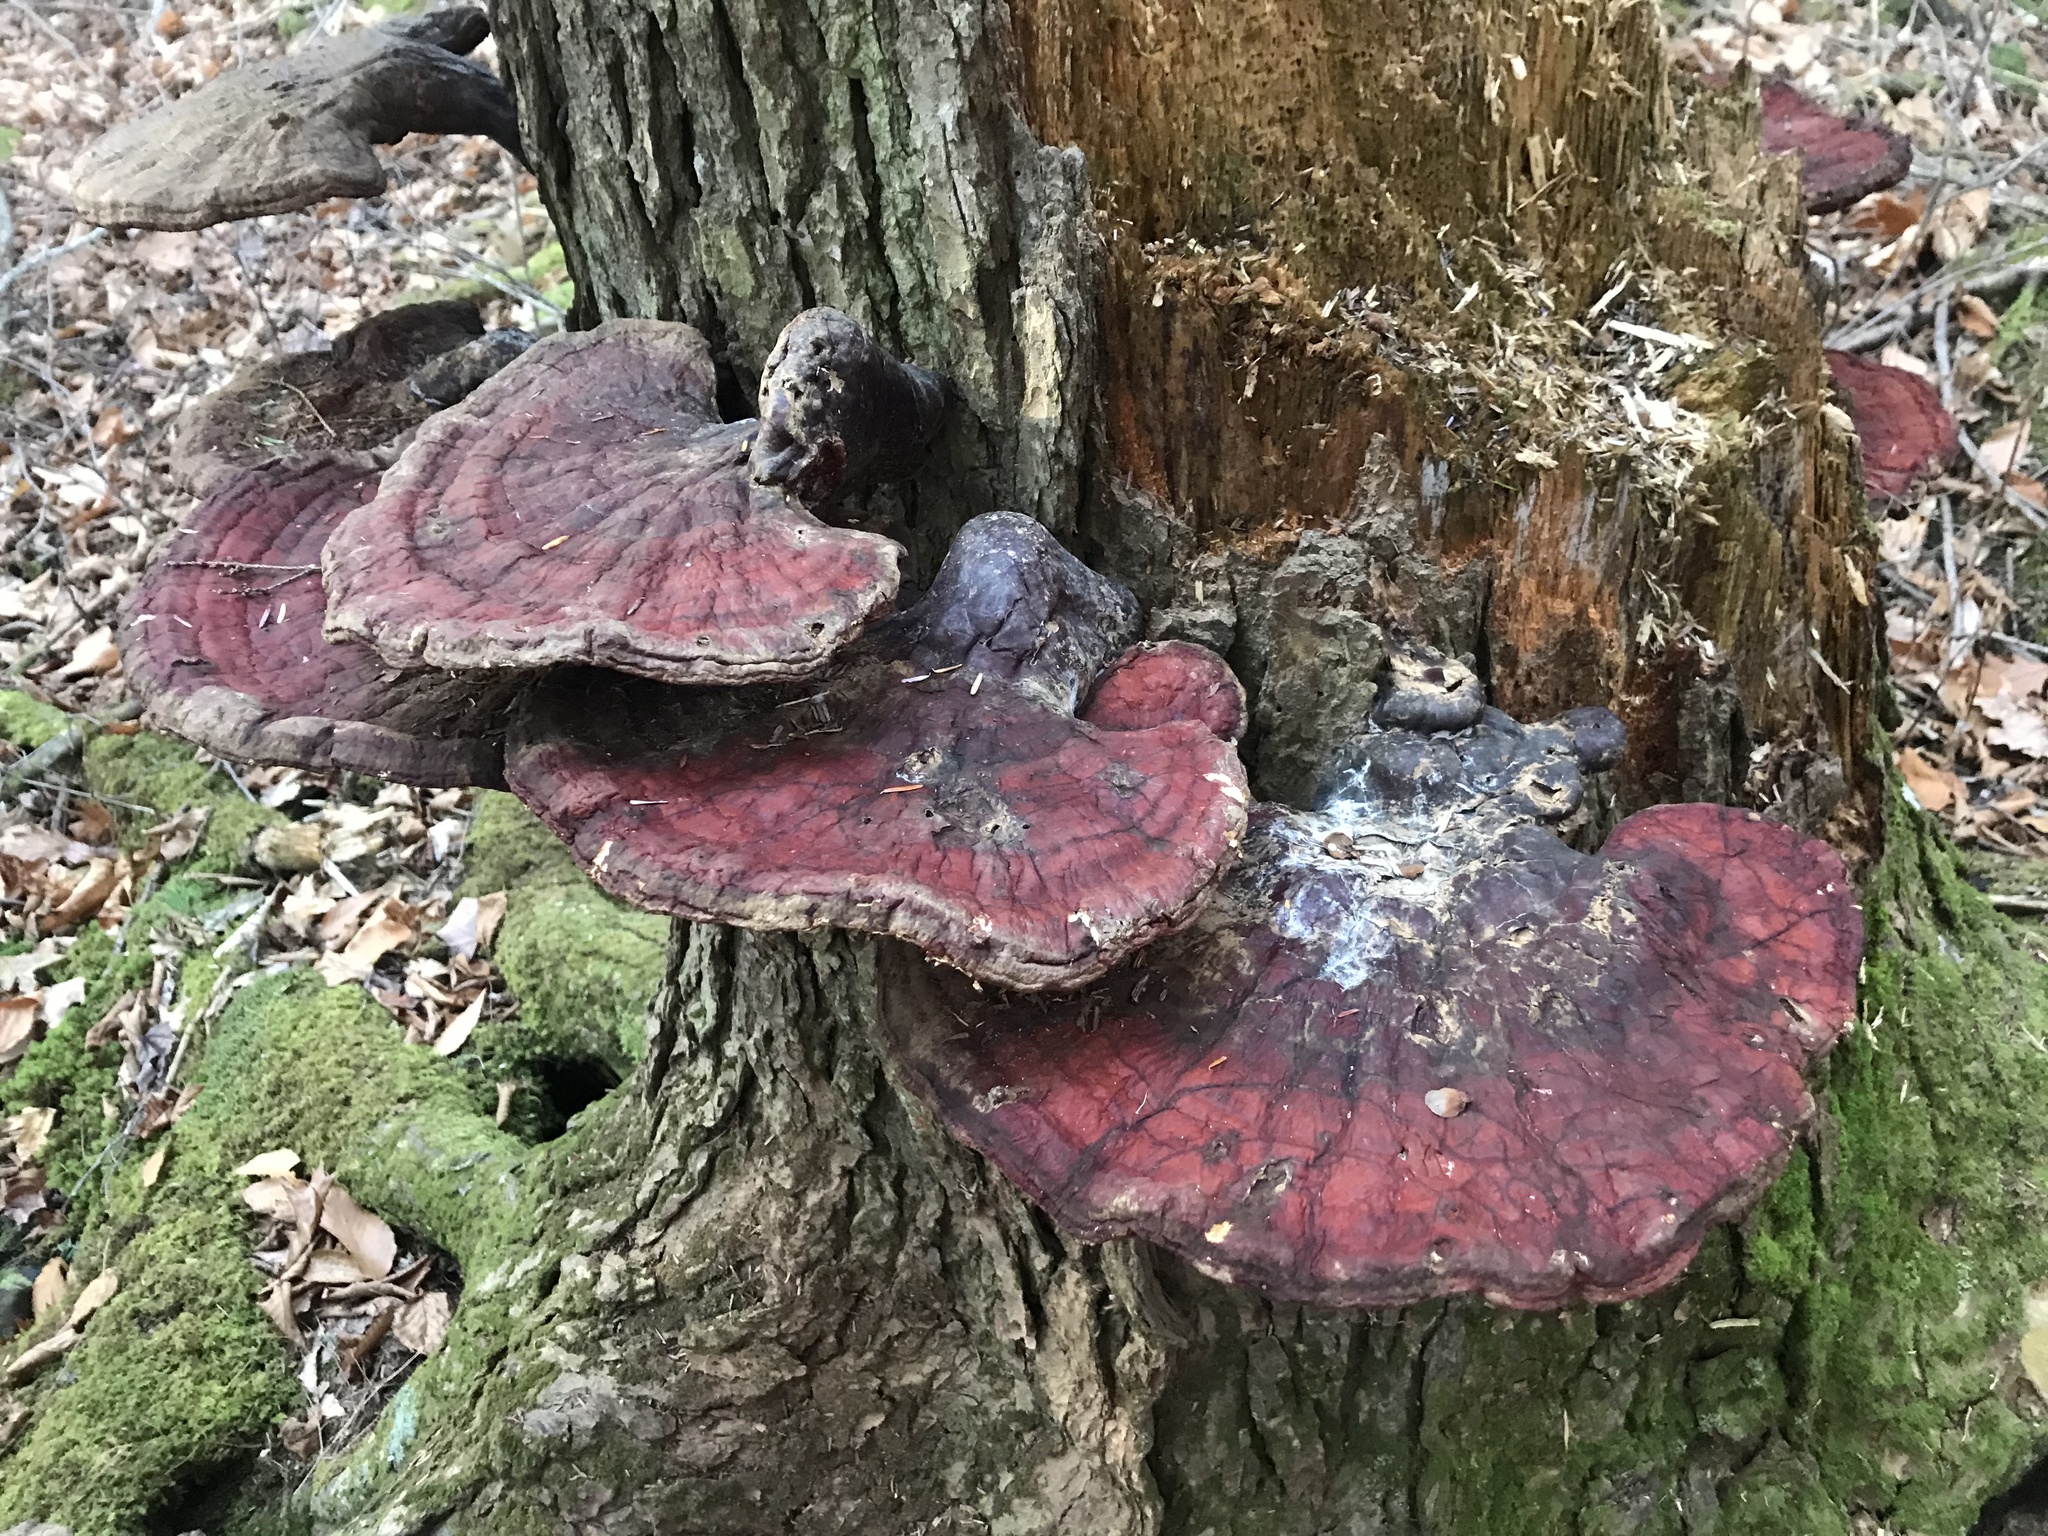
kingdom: Fungi
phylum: Basidiomycota
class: Agaricomycetes
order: Polyporales
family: Polyporaceae
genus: Ganoderma
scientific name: Ganoderma tsugae
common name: Hemlock varnish shelf
